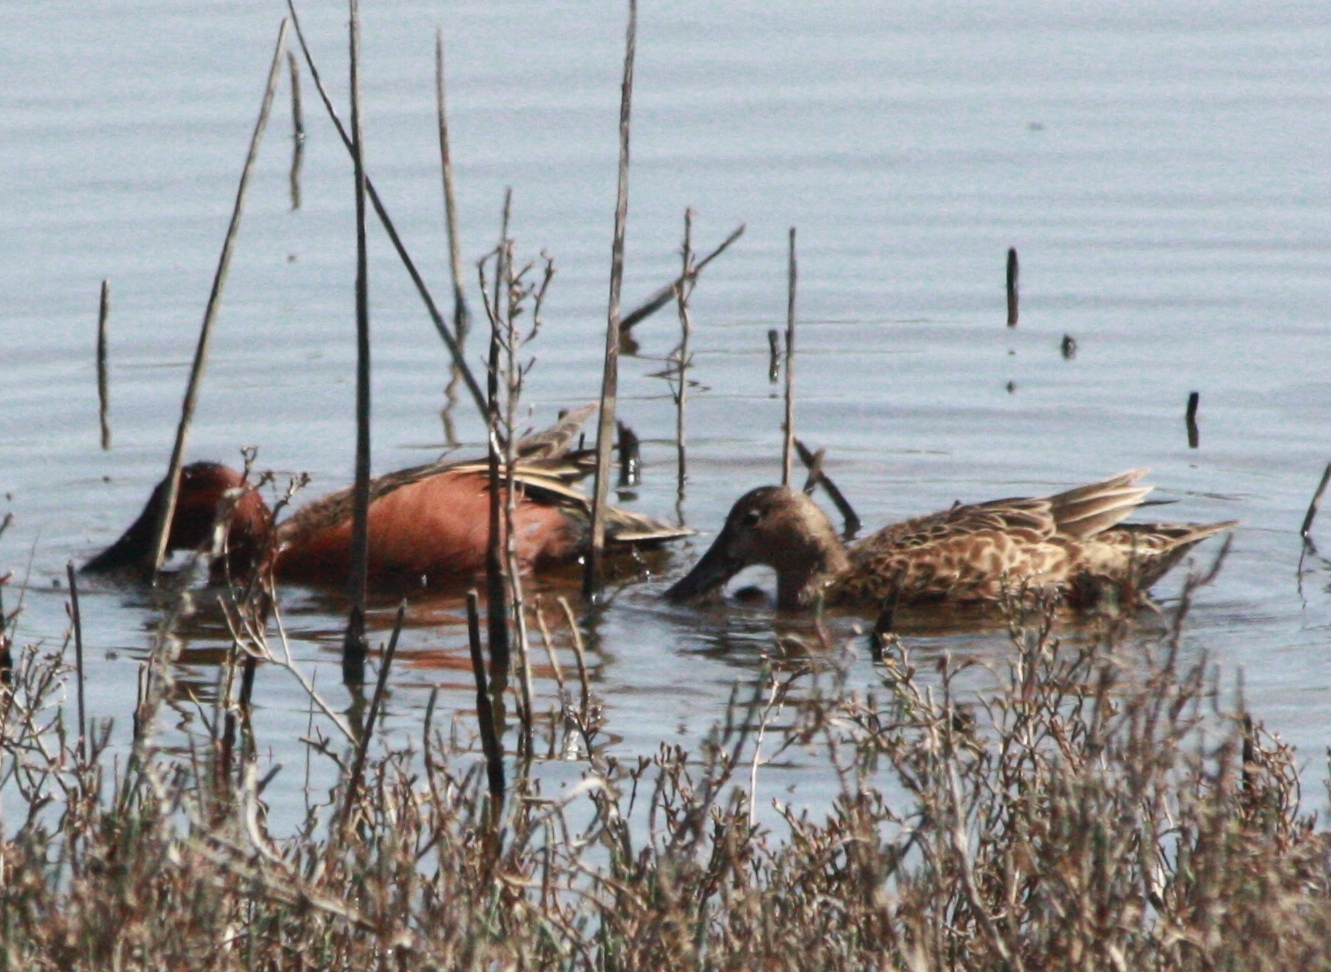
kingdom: Animalia
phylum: Chordata
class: Aves
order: Anseriformes
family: Anatidae
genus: Spatula
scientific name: Spatula cyanoptera
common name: Cinnamon teal
